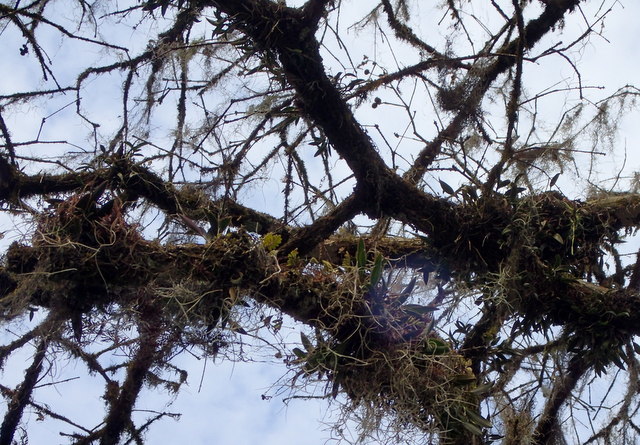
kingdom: Plantae
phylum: Tracheophyta
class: Liliopsida
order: Asparagales
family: Orchidaceae
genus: Epidendrum
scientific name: Epidendrum conopseum
